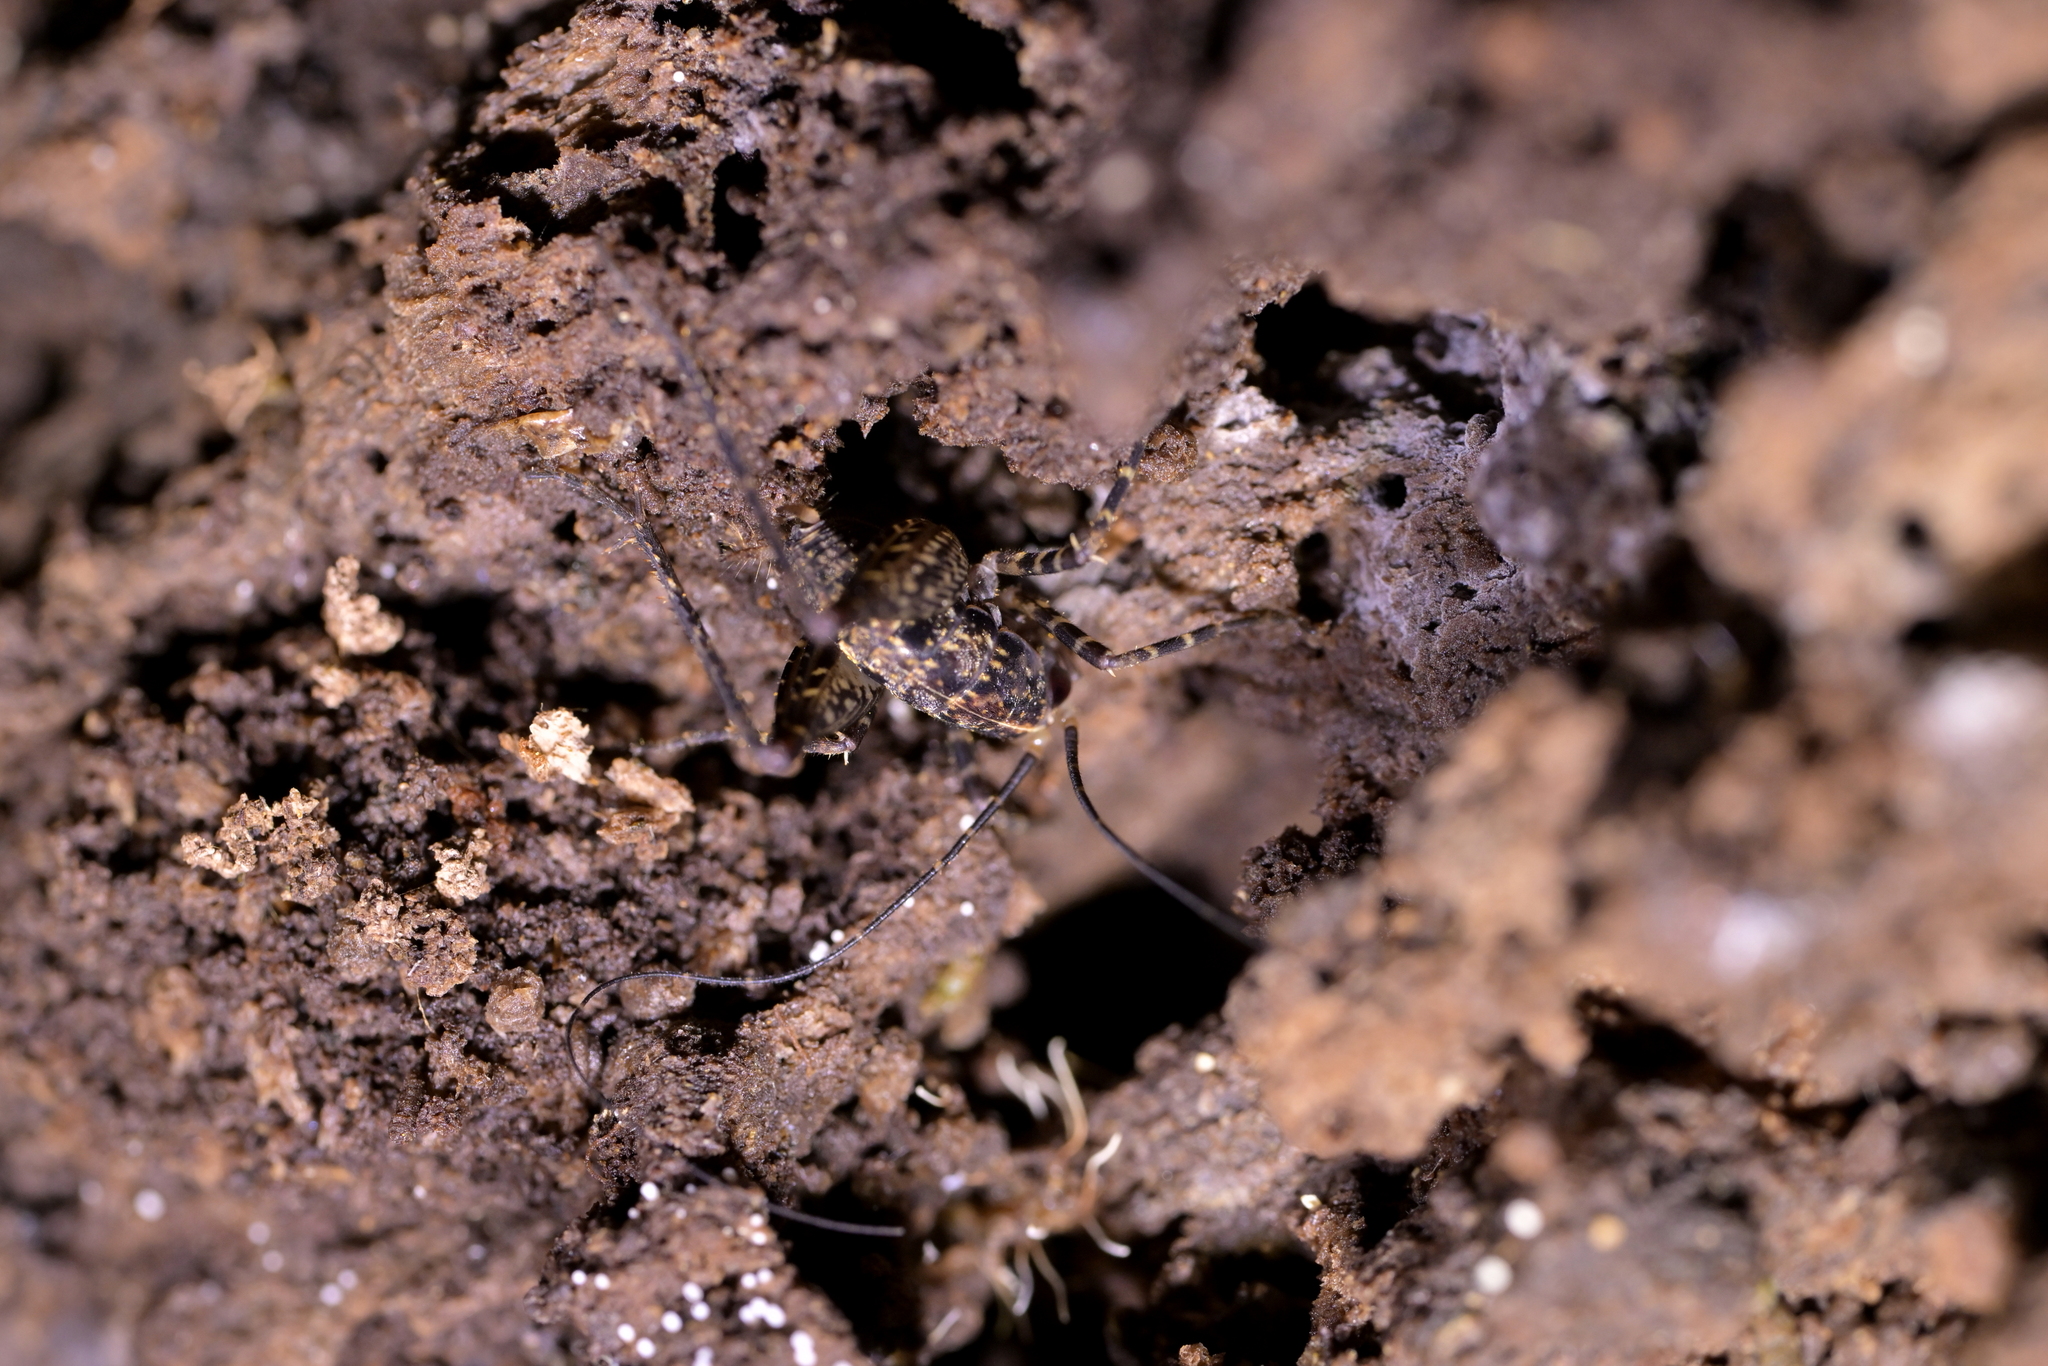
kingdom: Animalia
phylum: Arthropoda
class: Insecta
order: Orthoptera
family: Rhaphidophoridae
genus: Pleioplectron
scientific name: Pleioplectron hudsoni
